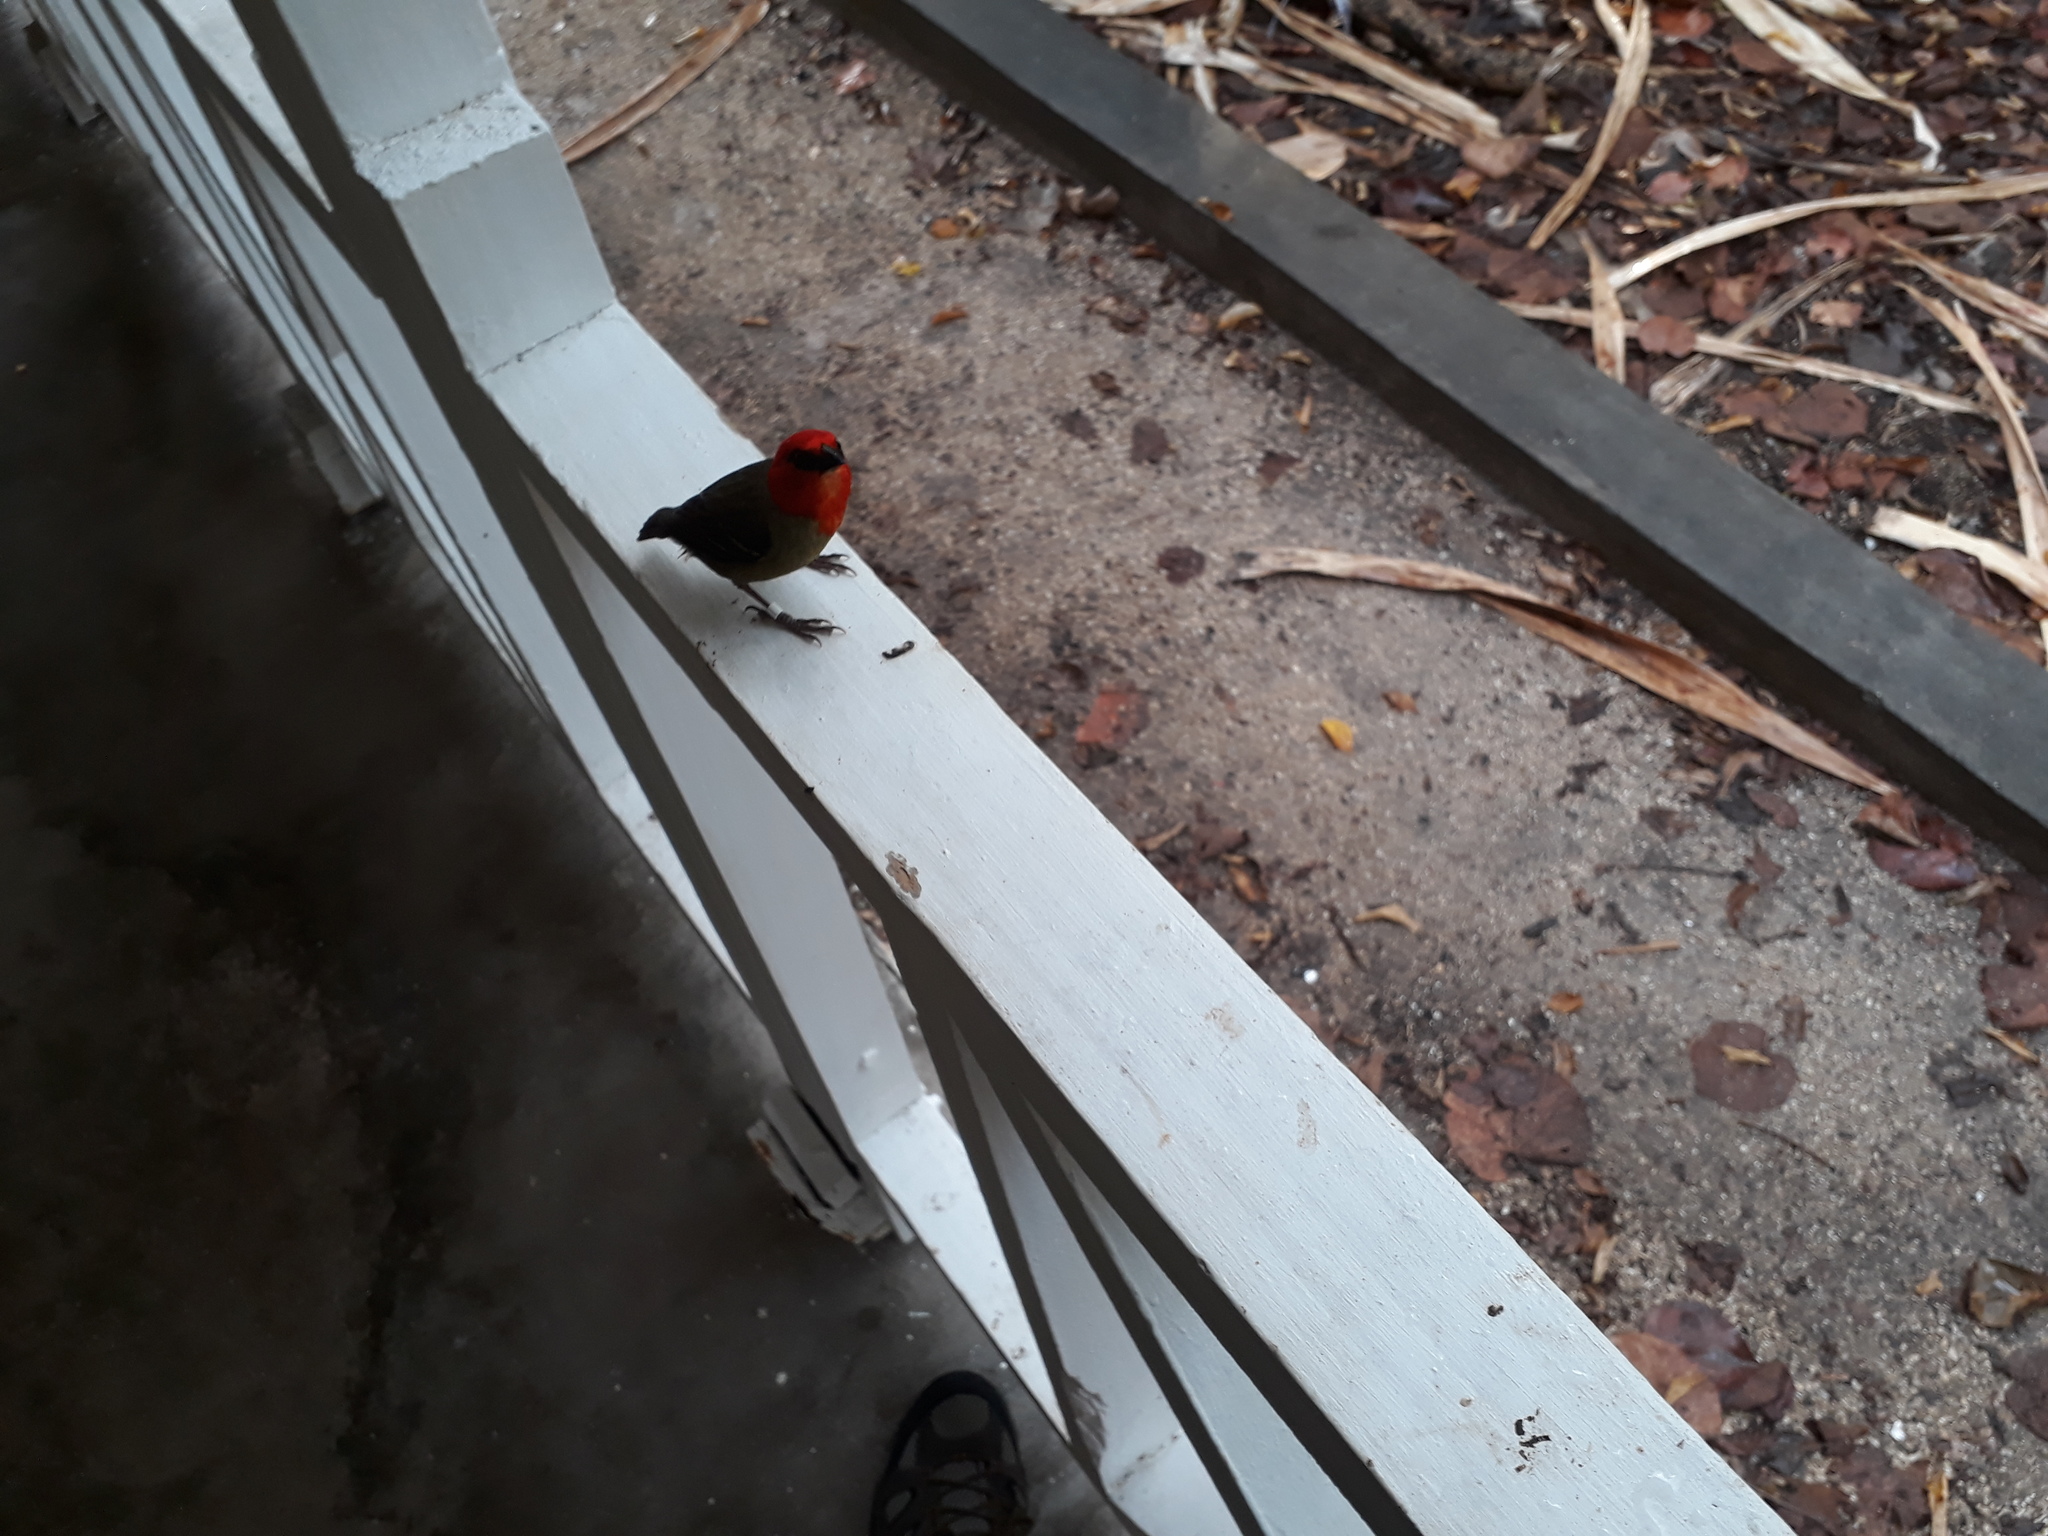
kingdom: Animalia
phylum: Chordata
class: Aves
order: Passeriformes
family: Ploceidae
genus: Foudia
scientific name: Foudia rubra
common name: Mauritius fody
